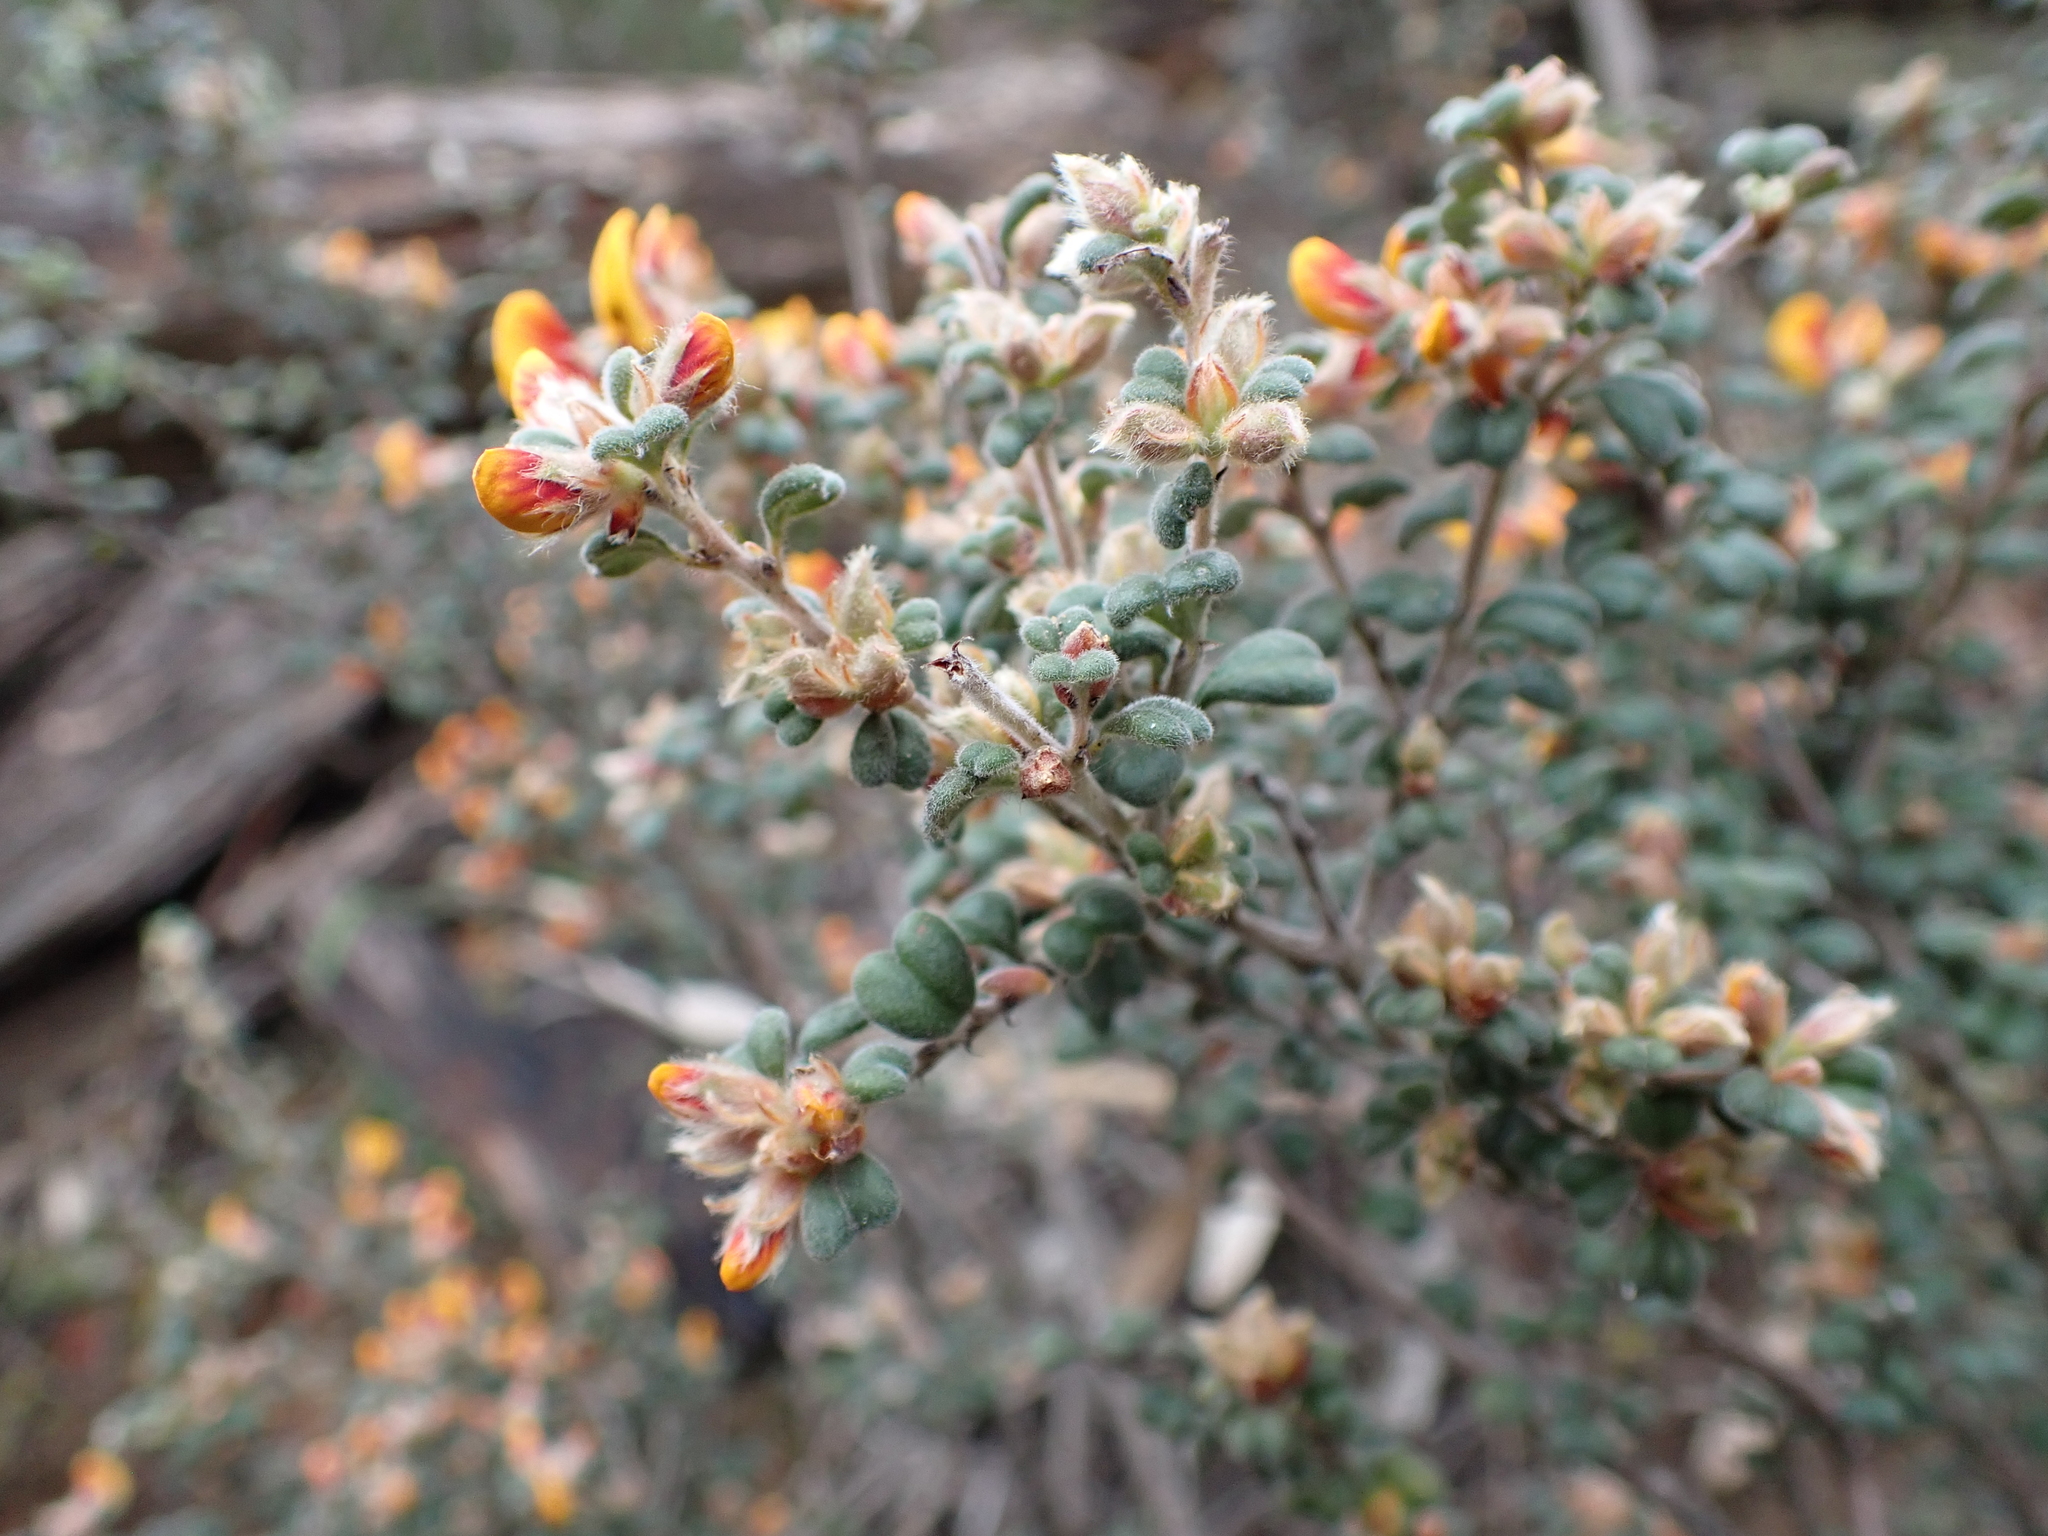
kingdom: Plantae
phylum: Tracheophyta
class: Magnoliopsida
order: Fabales
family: Fabaceae
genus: Pultenaea
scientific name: Pultenaea scabra
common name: Rough bush-pea
